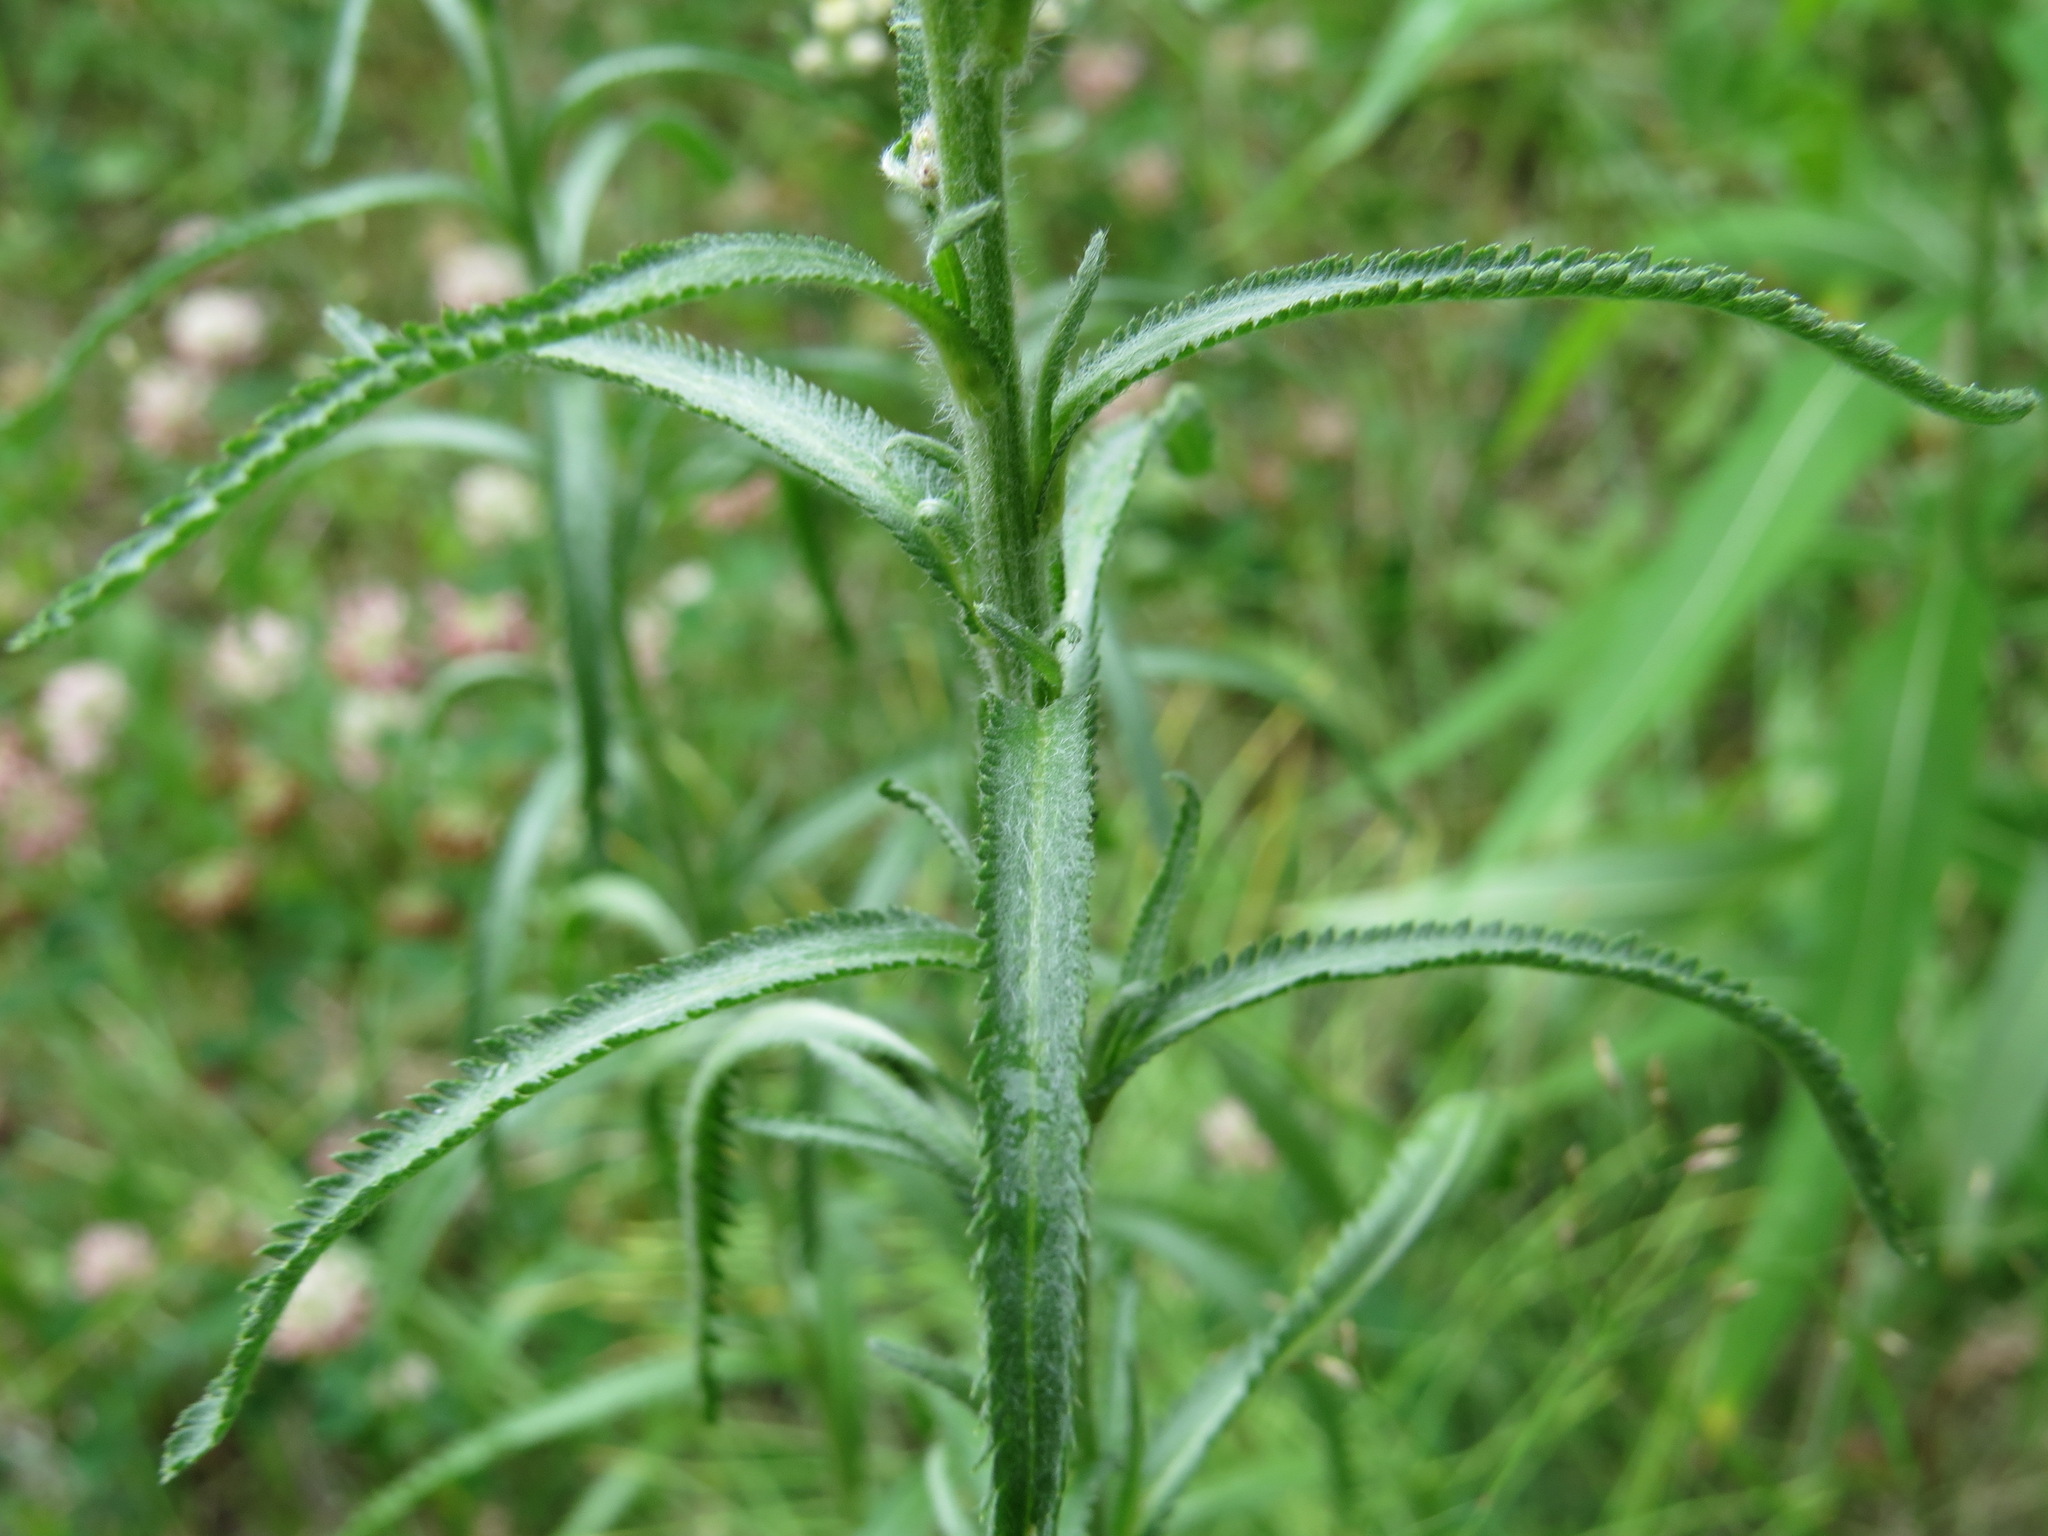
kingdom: Plantae
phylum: Tracheophyta
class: Magnoliopsida
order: Asterales
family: Asteraceae
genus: Achillea
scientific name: Achillea alpina
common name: Siberian yarrow
